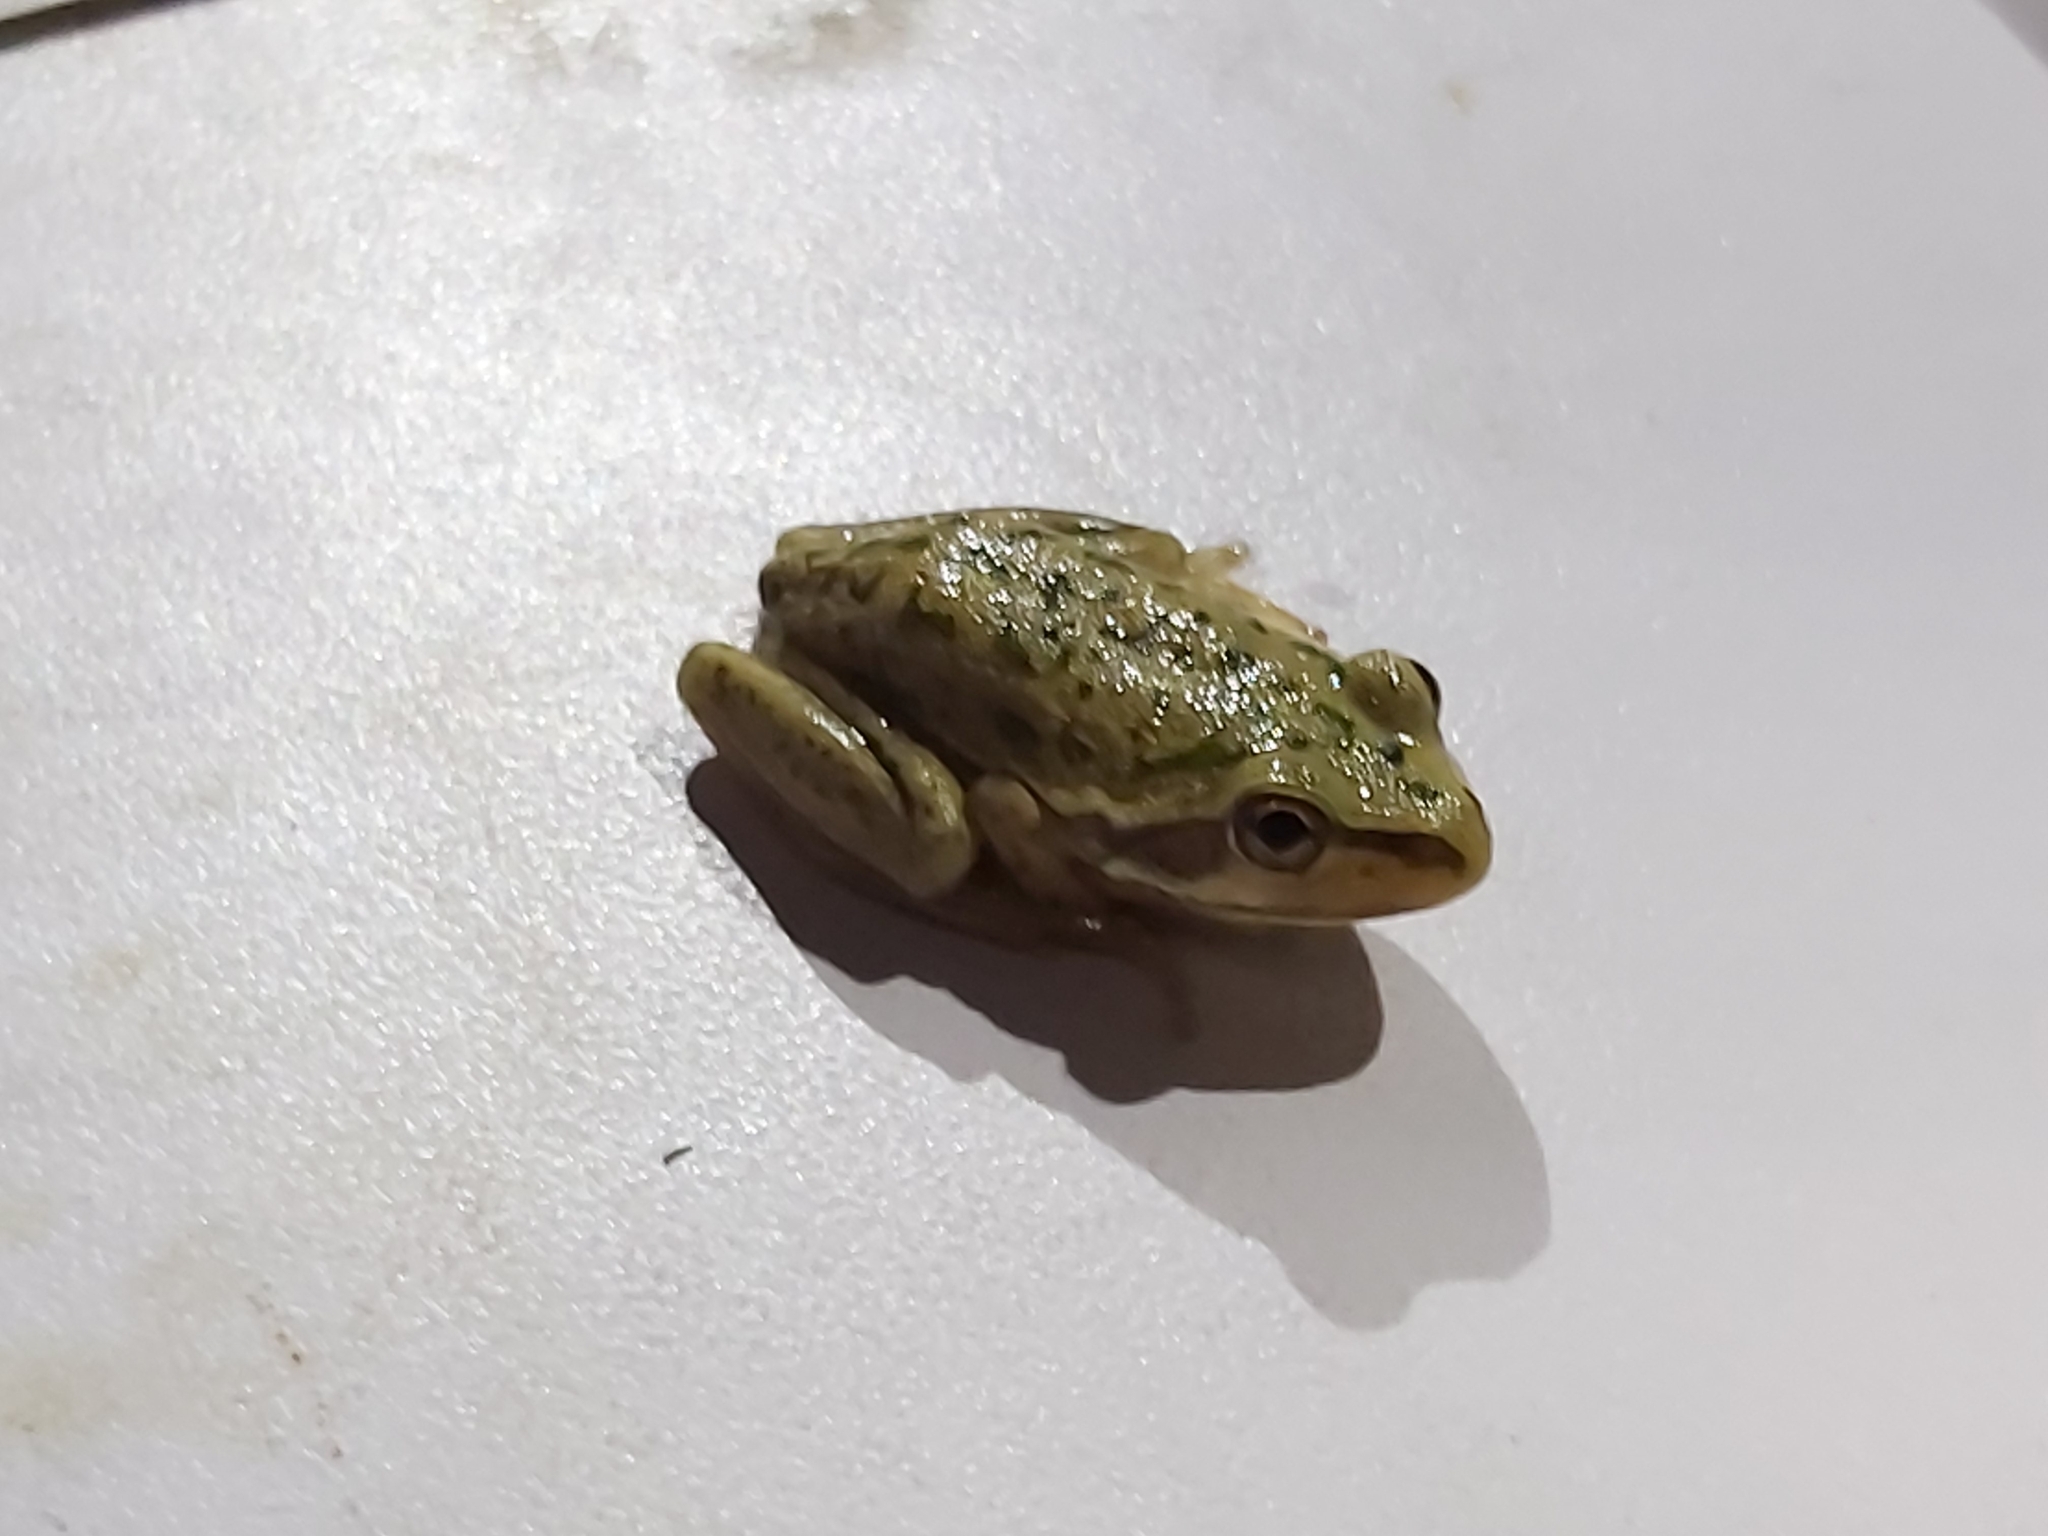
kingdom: Animalia
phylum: Chordata
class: Amphibia
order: Anura
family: Pelodryadidae
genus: Ranoidea
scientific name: Ranoidea aurea
